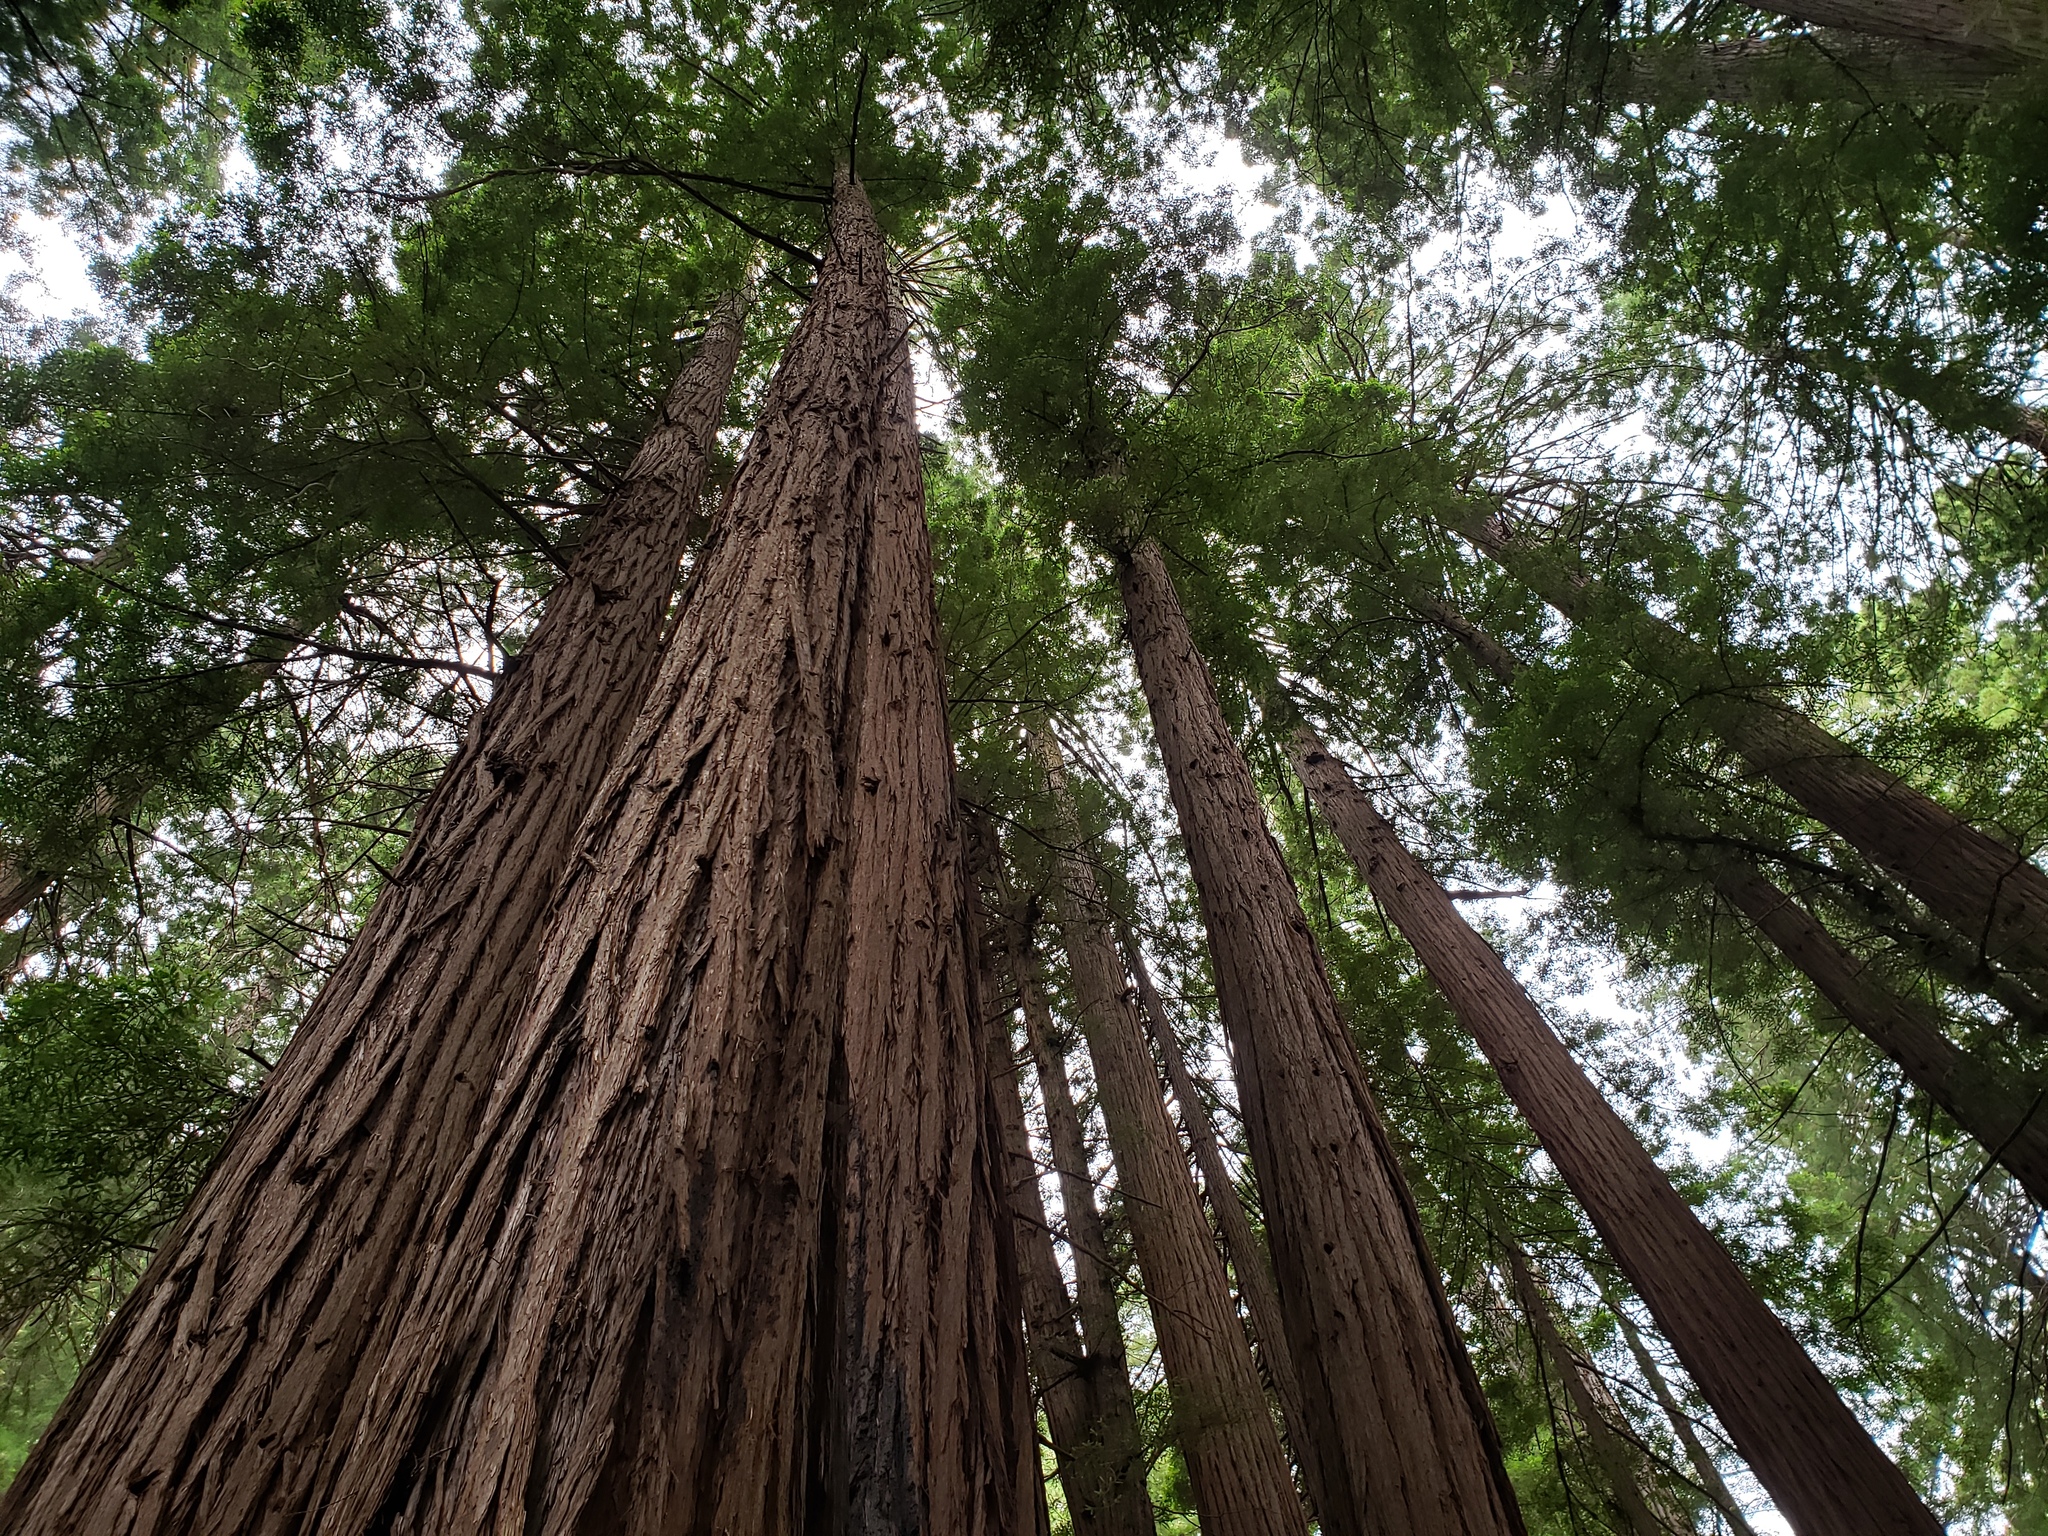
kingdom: Plantae
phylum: Tracheophyta
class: Pinopsida
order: Pinales
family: Cupressaceae
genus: Sequoia
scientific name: Sequoia sempervirens
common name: Coast redwood
